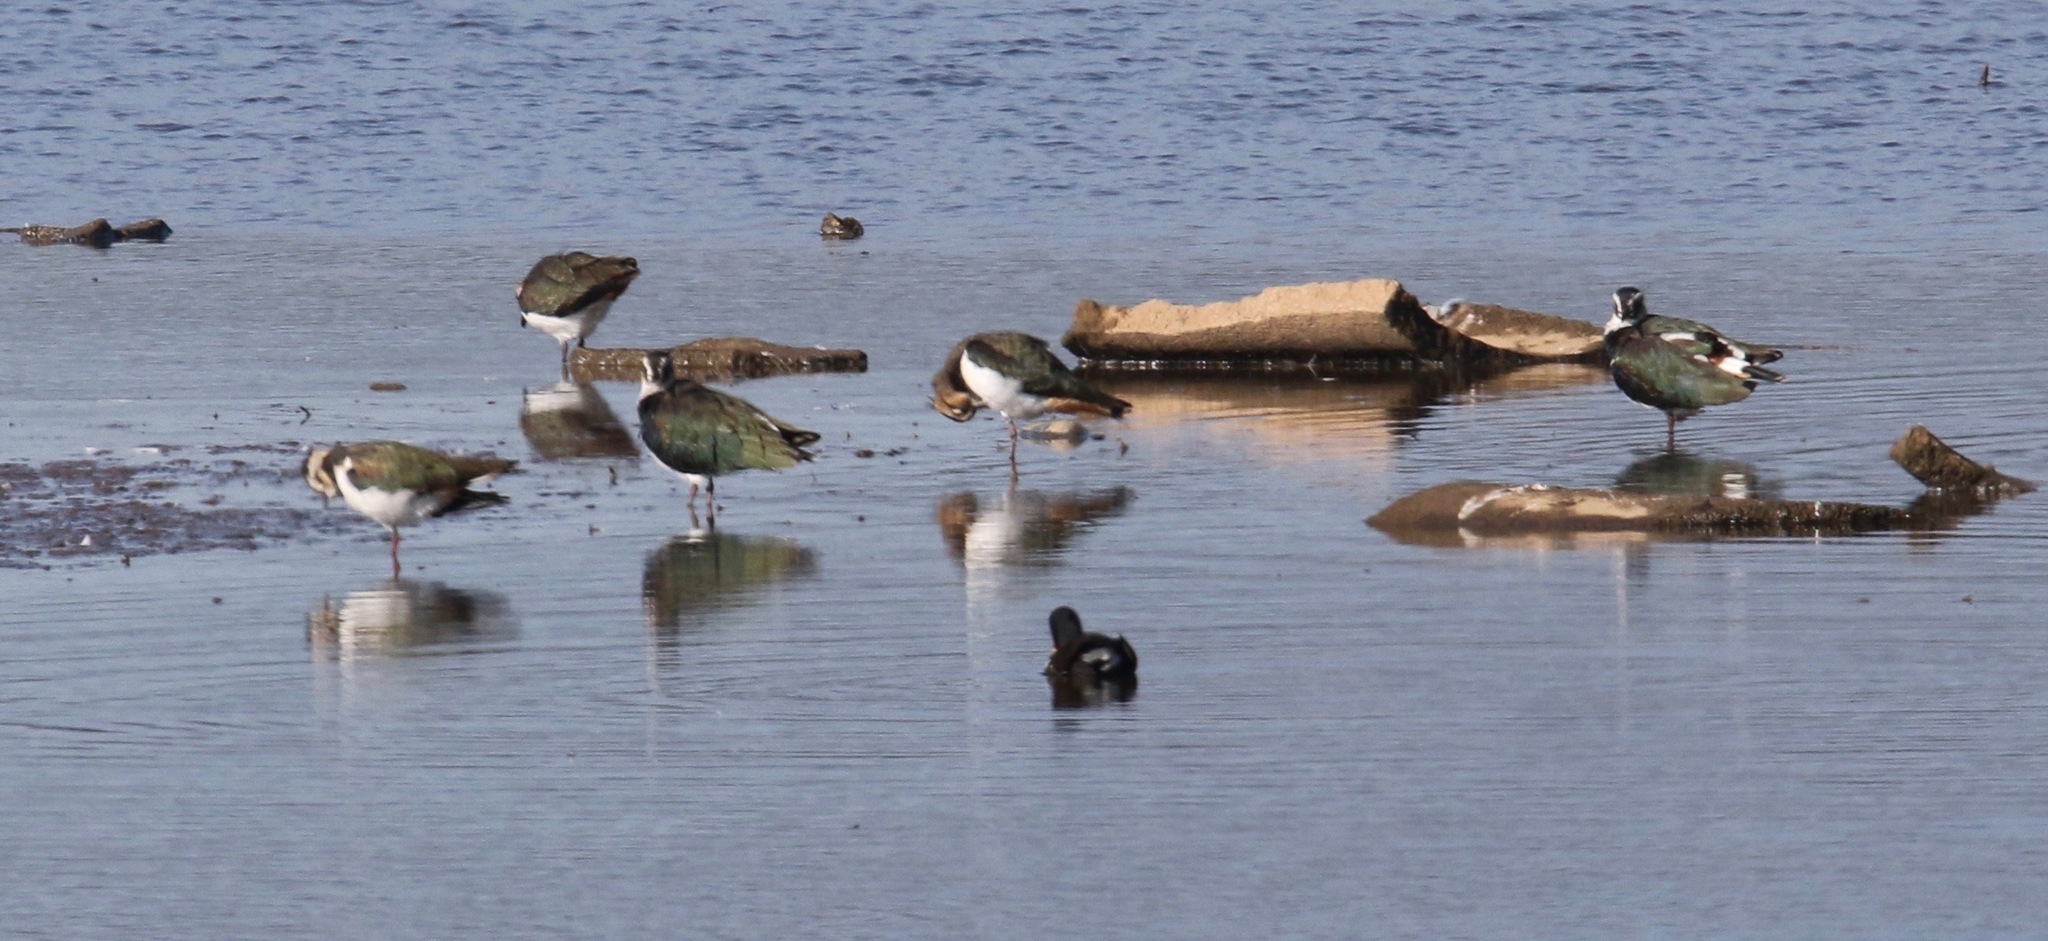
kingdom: Animalia
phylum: Chordata
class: Aves
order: Charadriiformes
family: Charadriidae
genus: Vanellus
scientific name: Vanellus vanellus
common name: Northern lapwing
